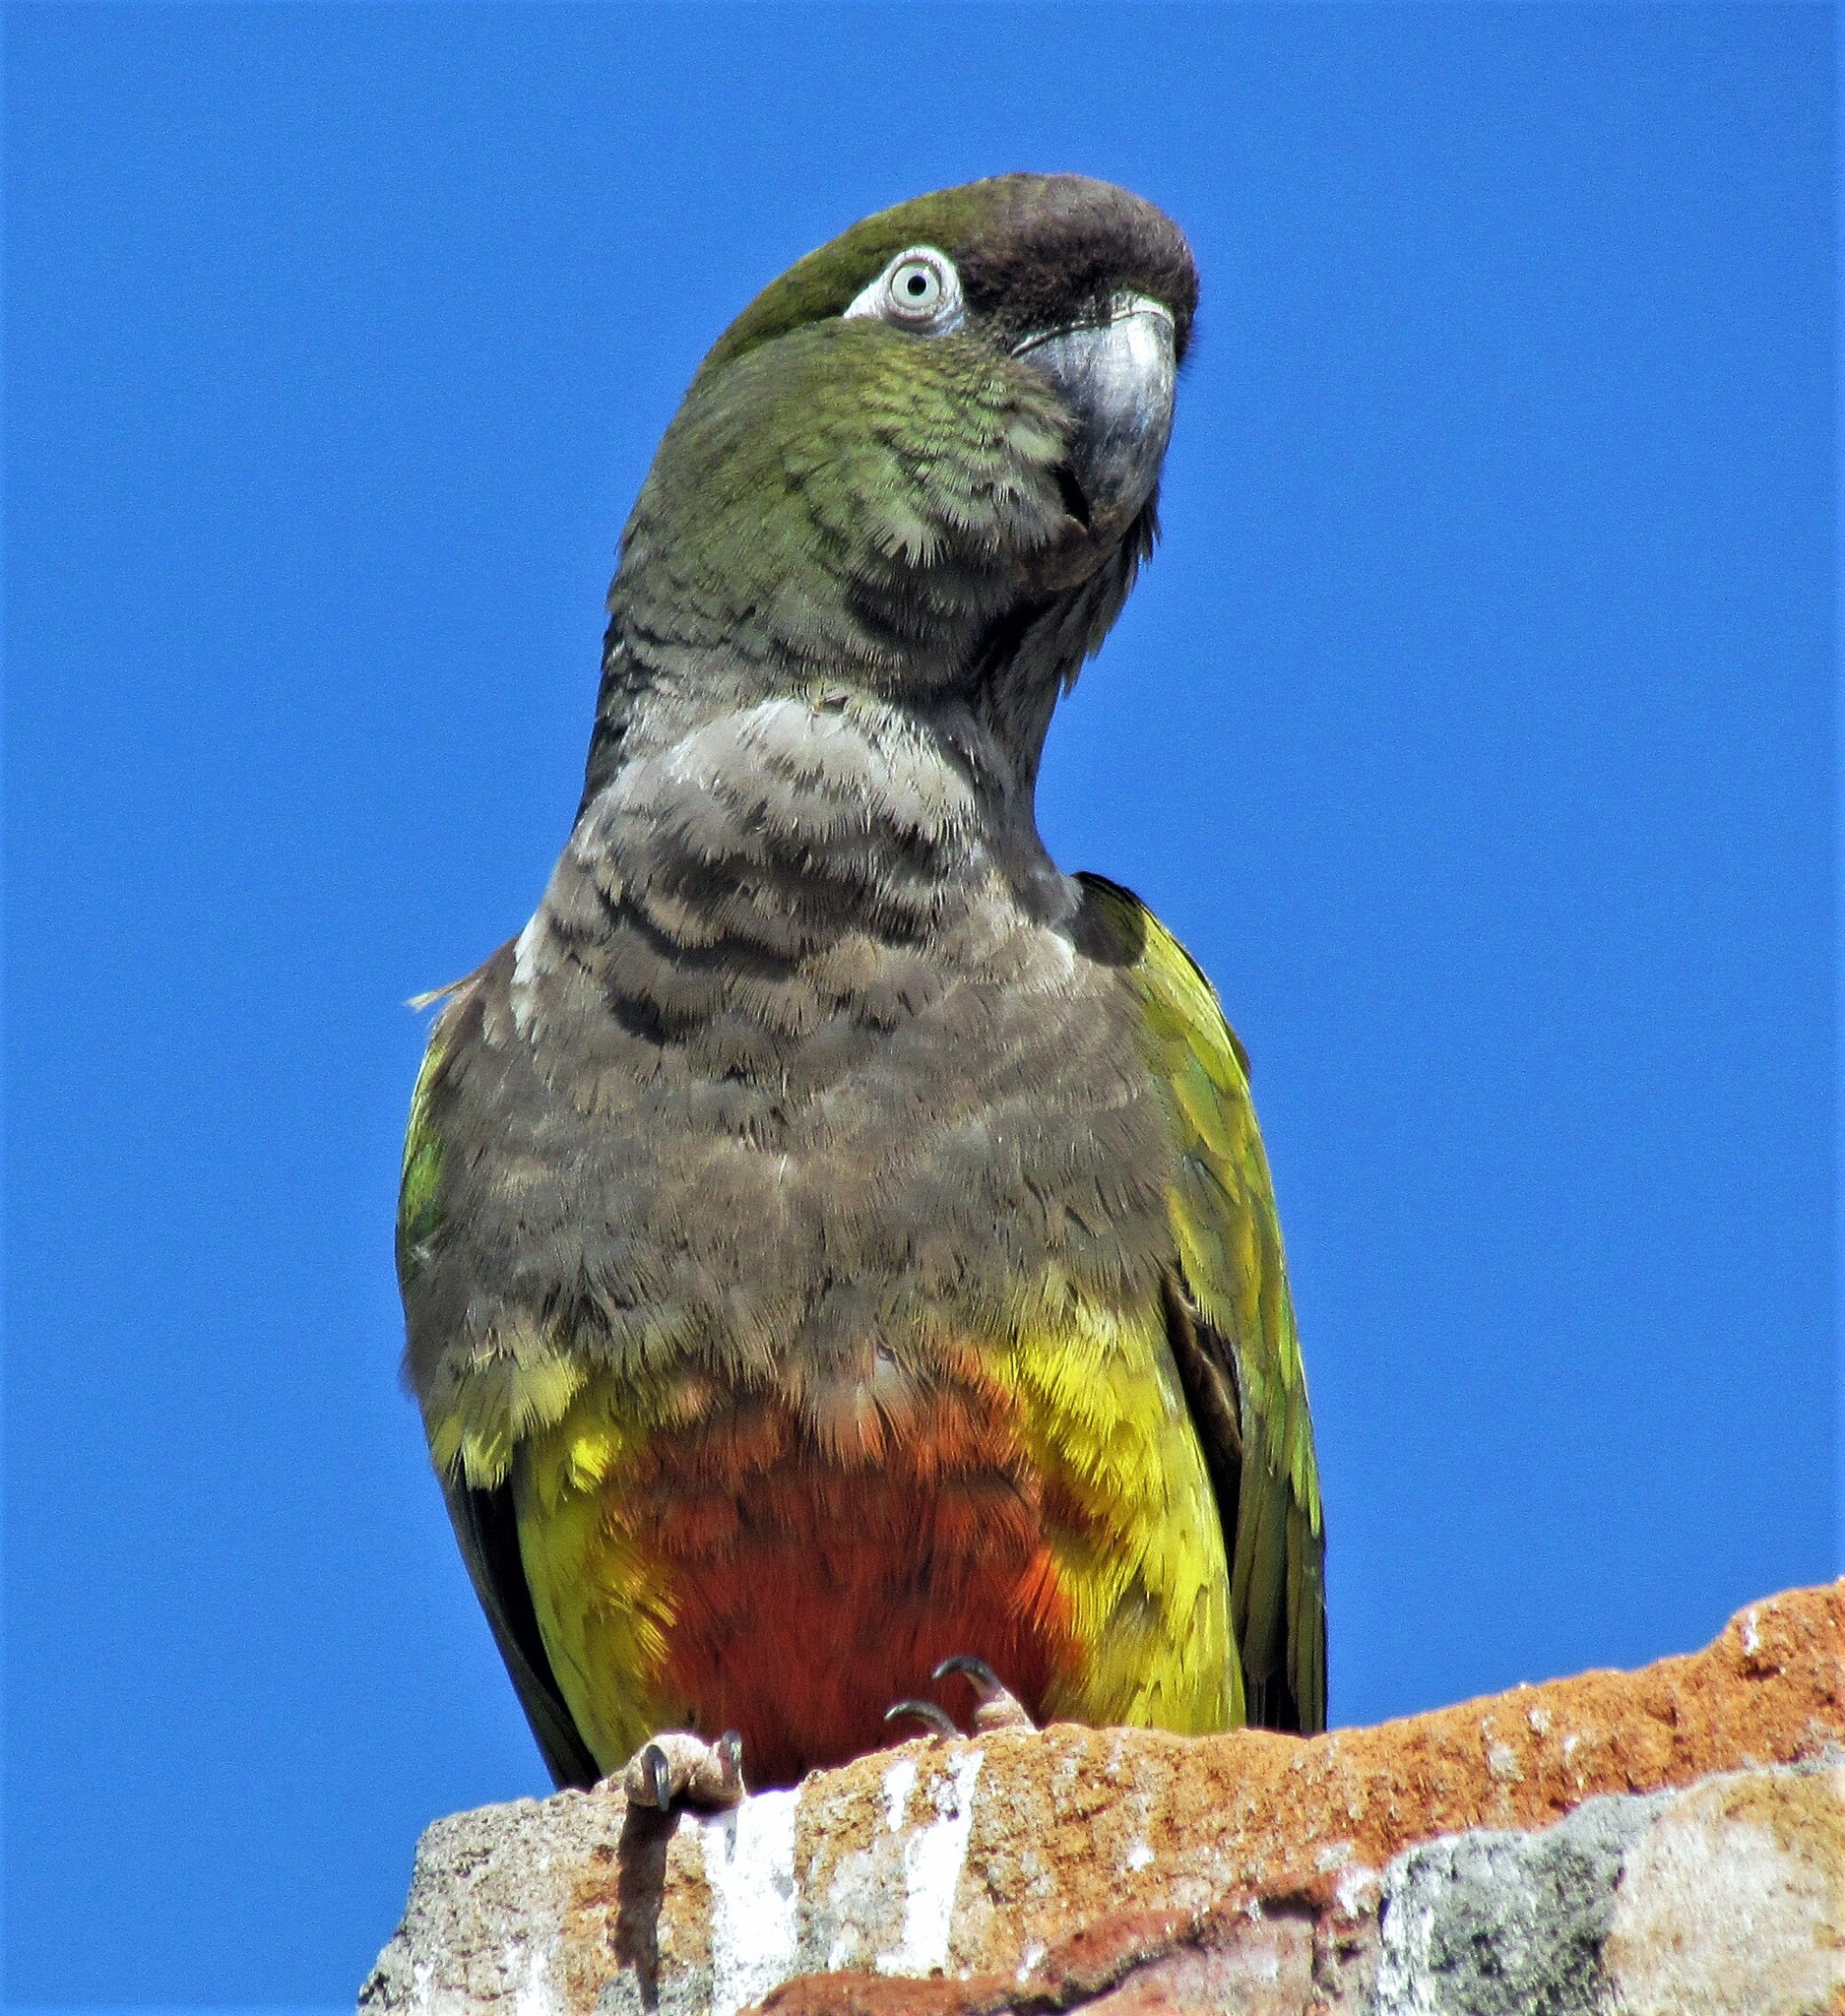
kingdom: Animalia
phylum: Chordata
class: Aves
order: Psittaciformes
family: Psittacidae
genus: Cyanoliseus
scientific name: Cyanoliseus patagonus
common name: Burrowing parrot
